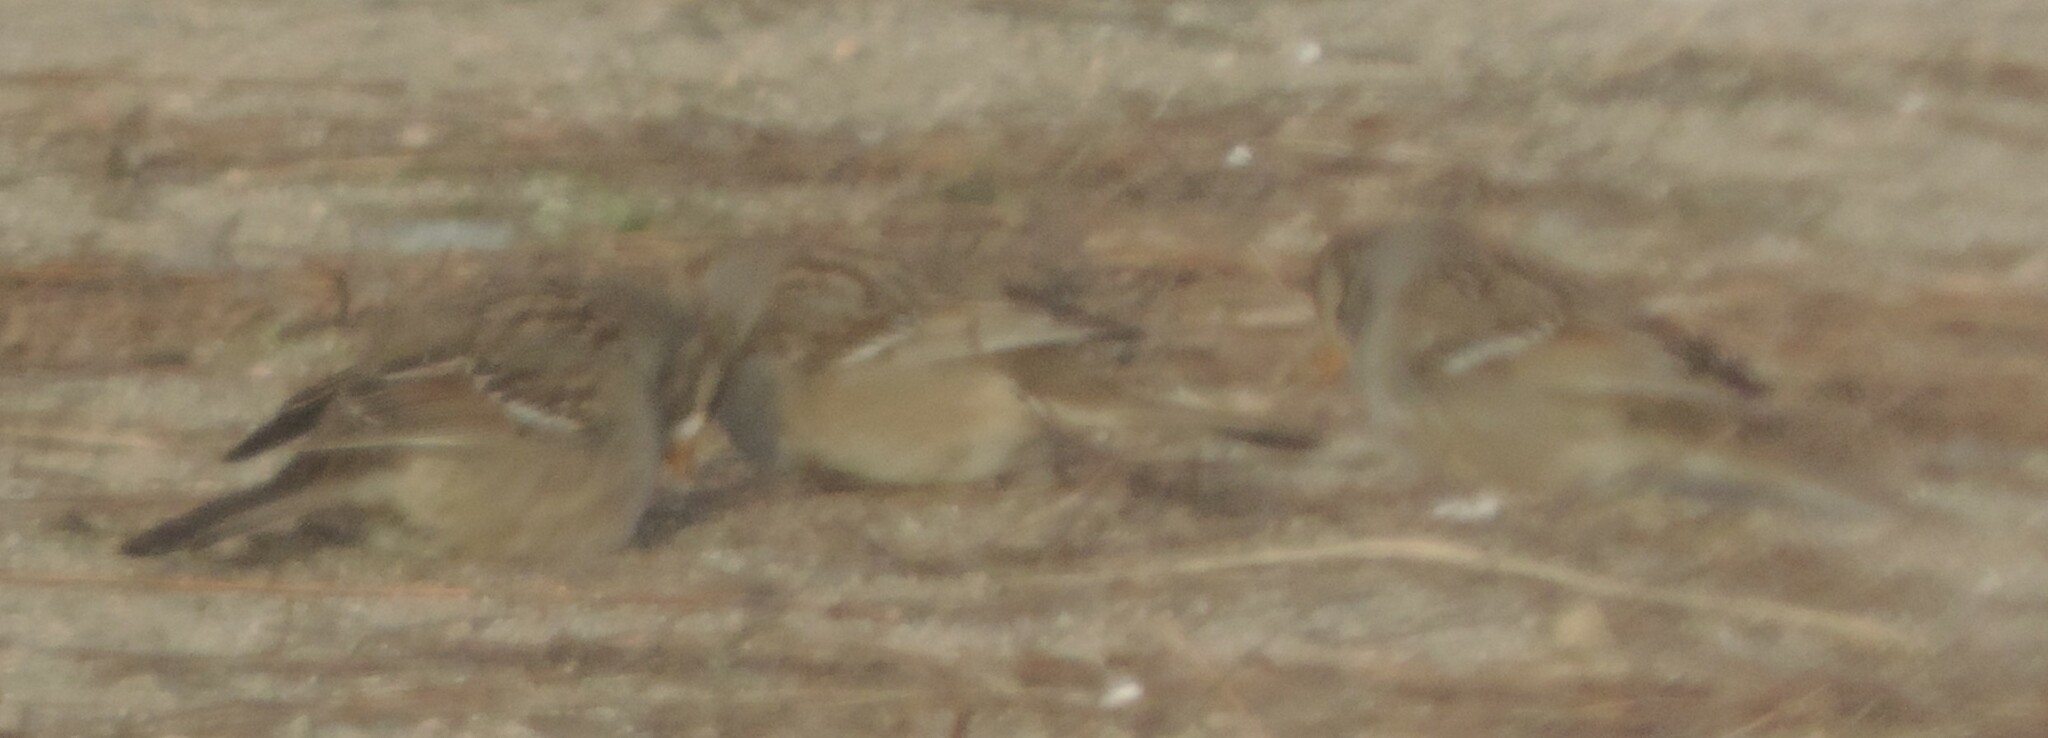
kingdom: Animalia
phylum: Chordata
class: Aves
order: Passeriformes
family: Passerellidae
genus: Zonotrichia
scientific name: Zonotrichia leucophrys
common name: White-crowned sparrow
